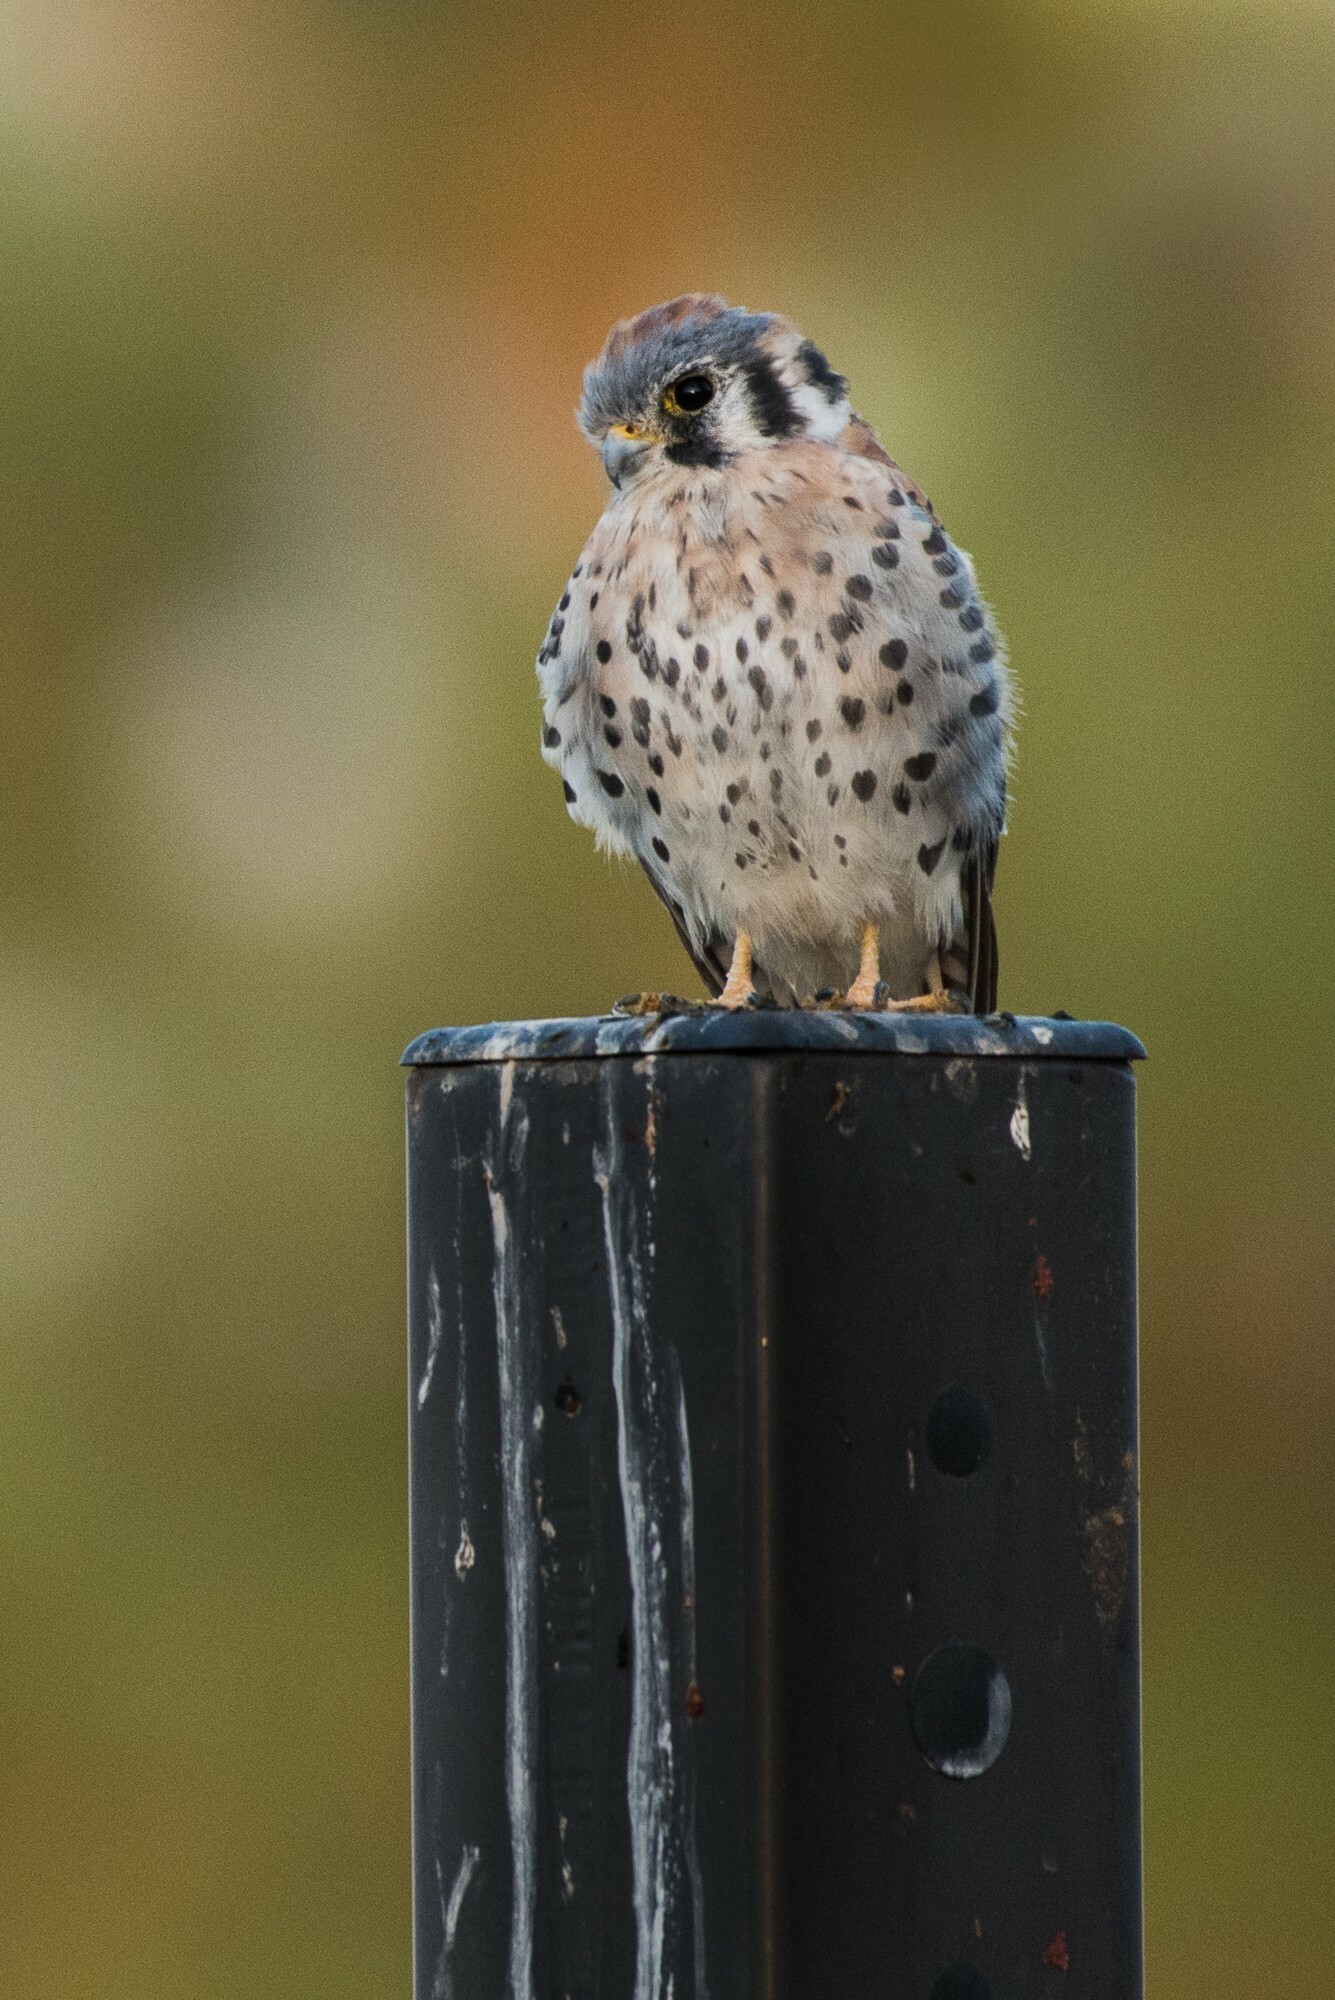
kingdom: Animalia
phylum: Chordata
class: Aves
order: Falconiformes
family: Falconidae
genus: Falco
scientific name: Falco sparverius
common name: American kestrel
